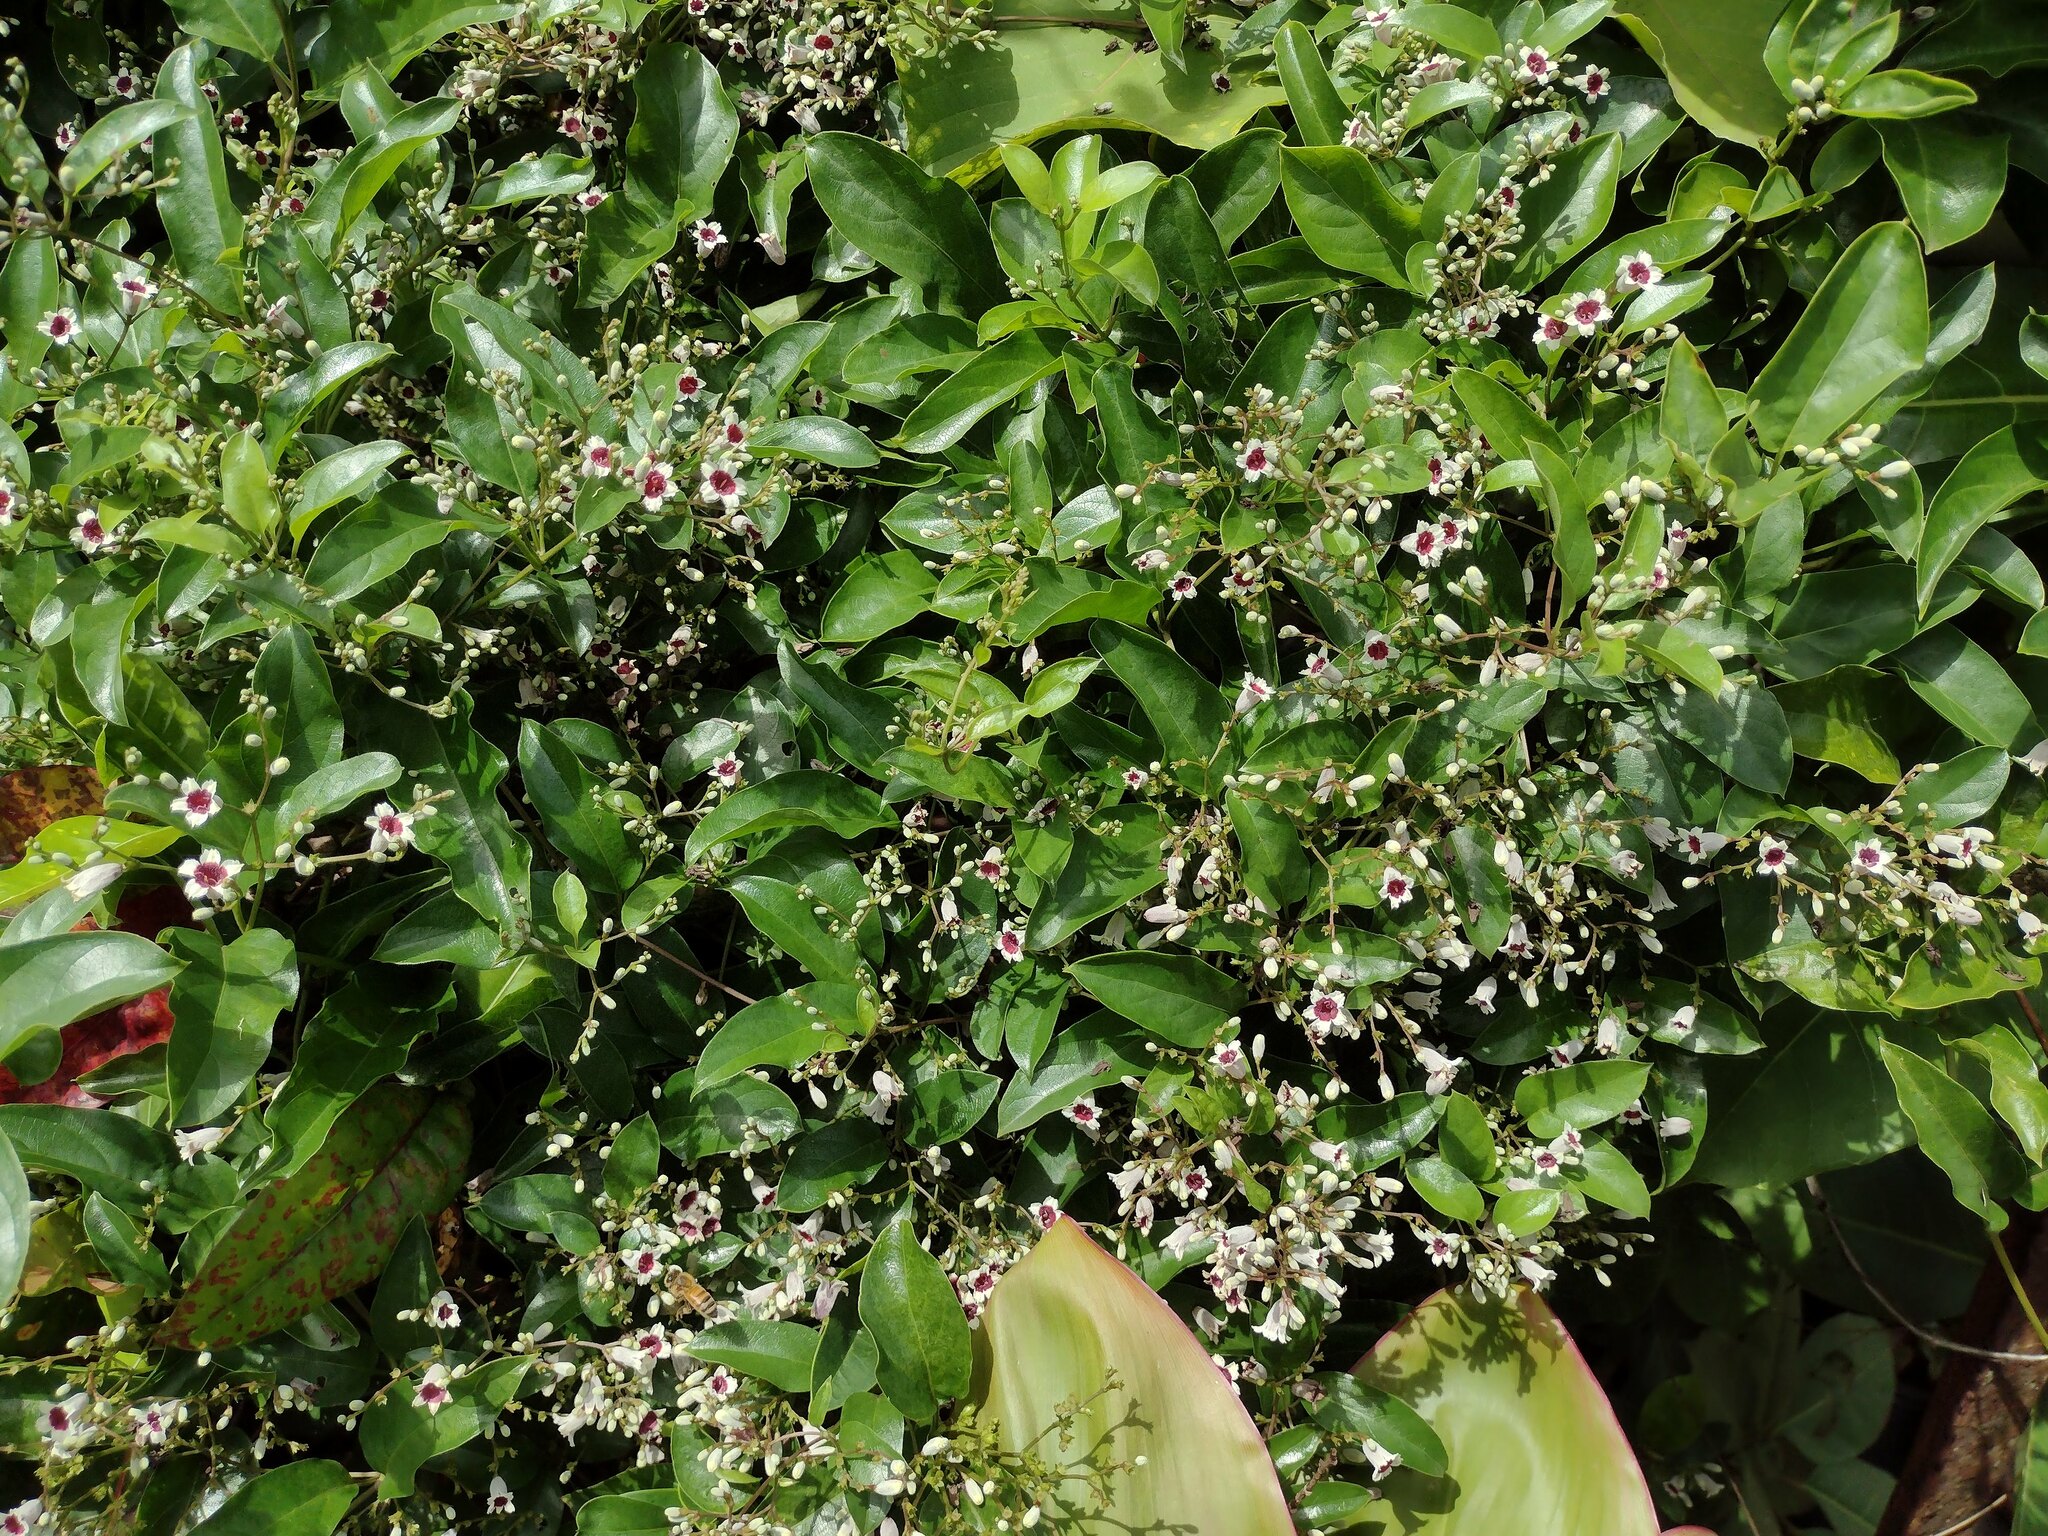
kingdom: Plantae
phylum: Tracheophyta
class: Magnoliopsida
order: Gentianales
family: Rubiaceae
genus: Paederia
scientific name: Paederia foetida
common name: Stinkvine
